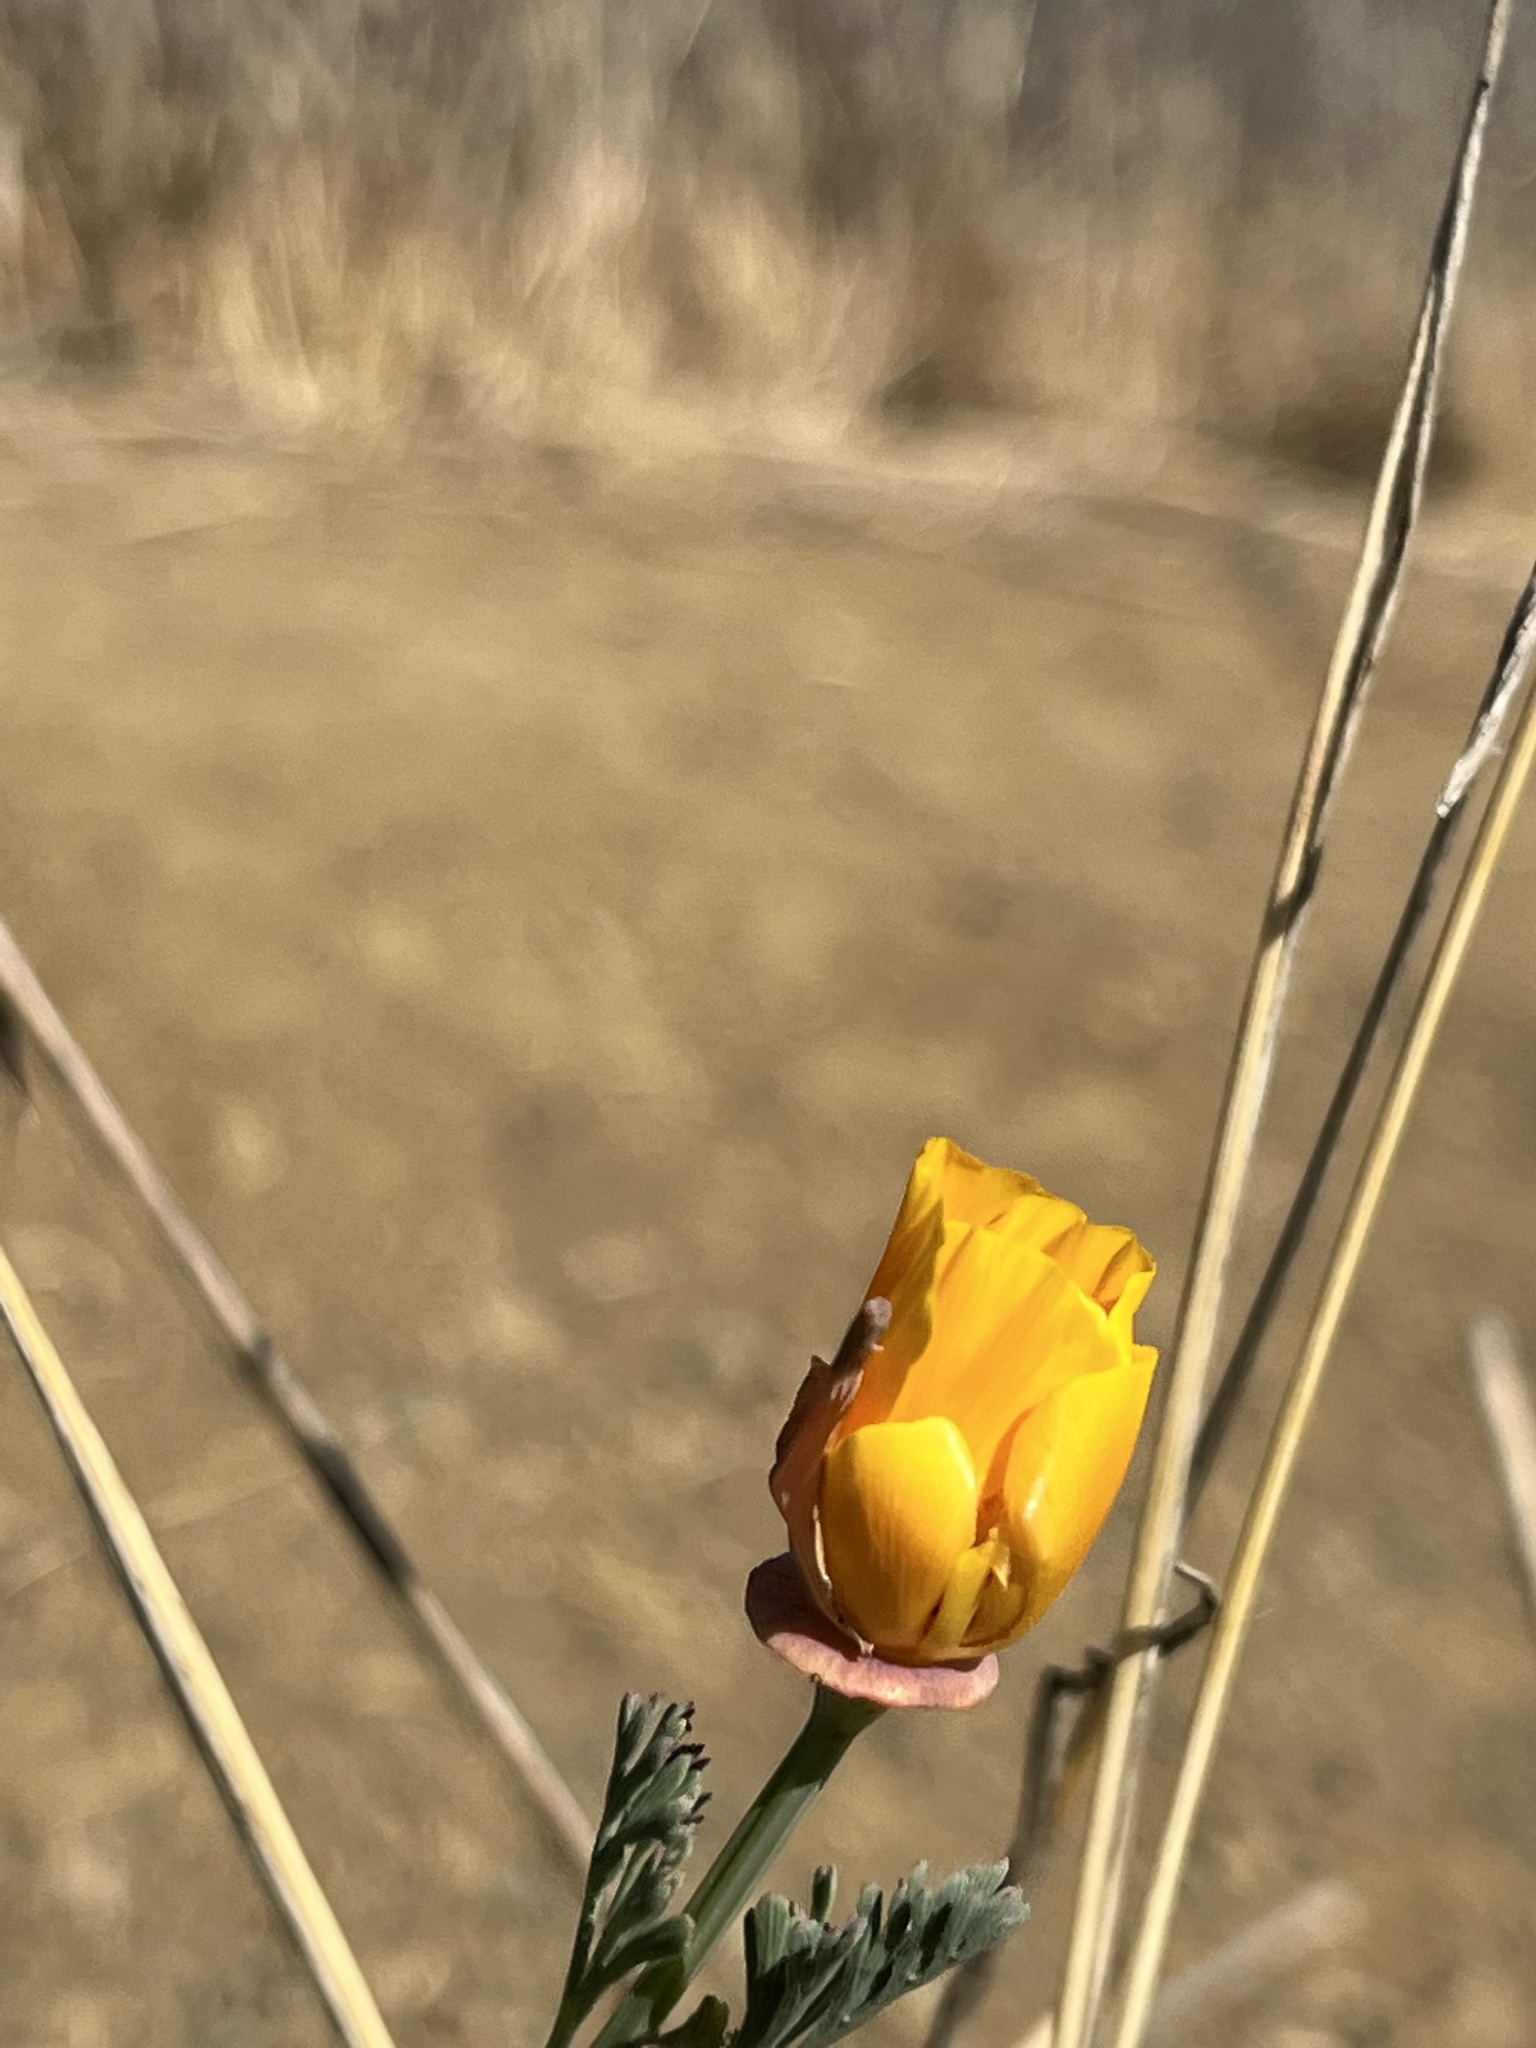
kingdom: Plantae
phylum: Tracheophyta
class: Magnoliopsida
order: Ranunculales
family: Papaveraceae
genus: Eschscholzia
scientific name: Eschscholzia californica
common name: California poppy
